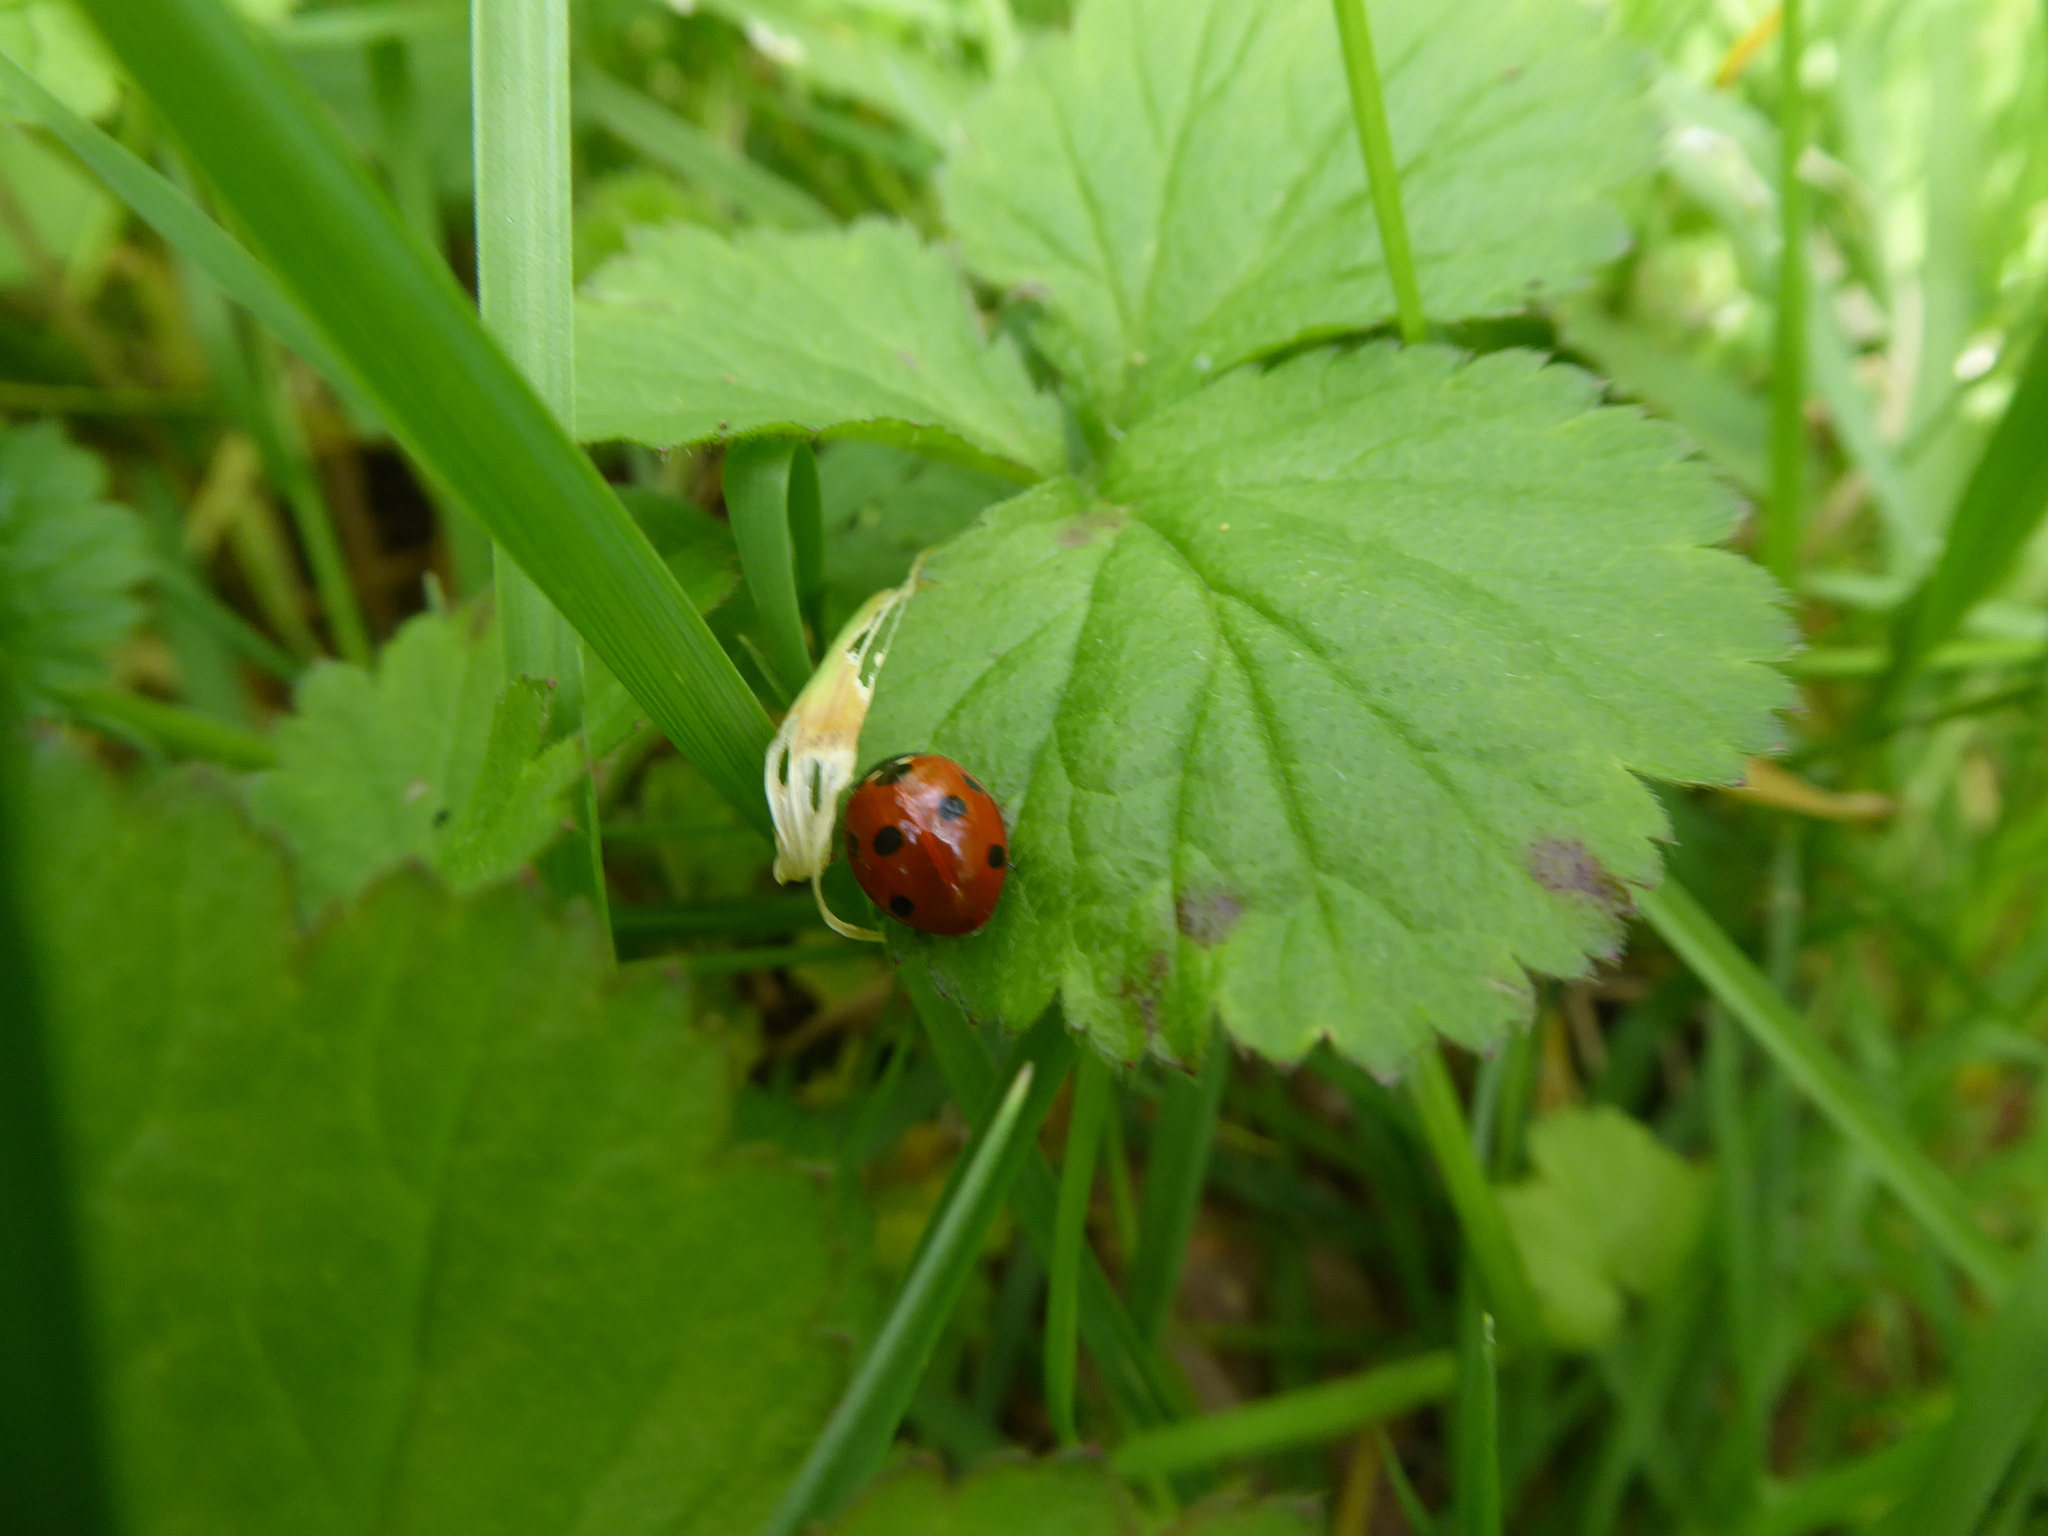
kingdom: Animalia
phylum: Arthropoda
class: Insecta
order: Coleoptera
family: Coccinellidae
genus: Coccinella
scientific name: Coccinella septempunctata
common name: Sevenspotted lady beetle
